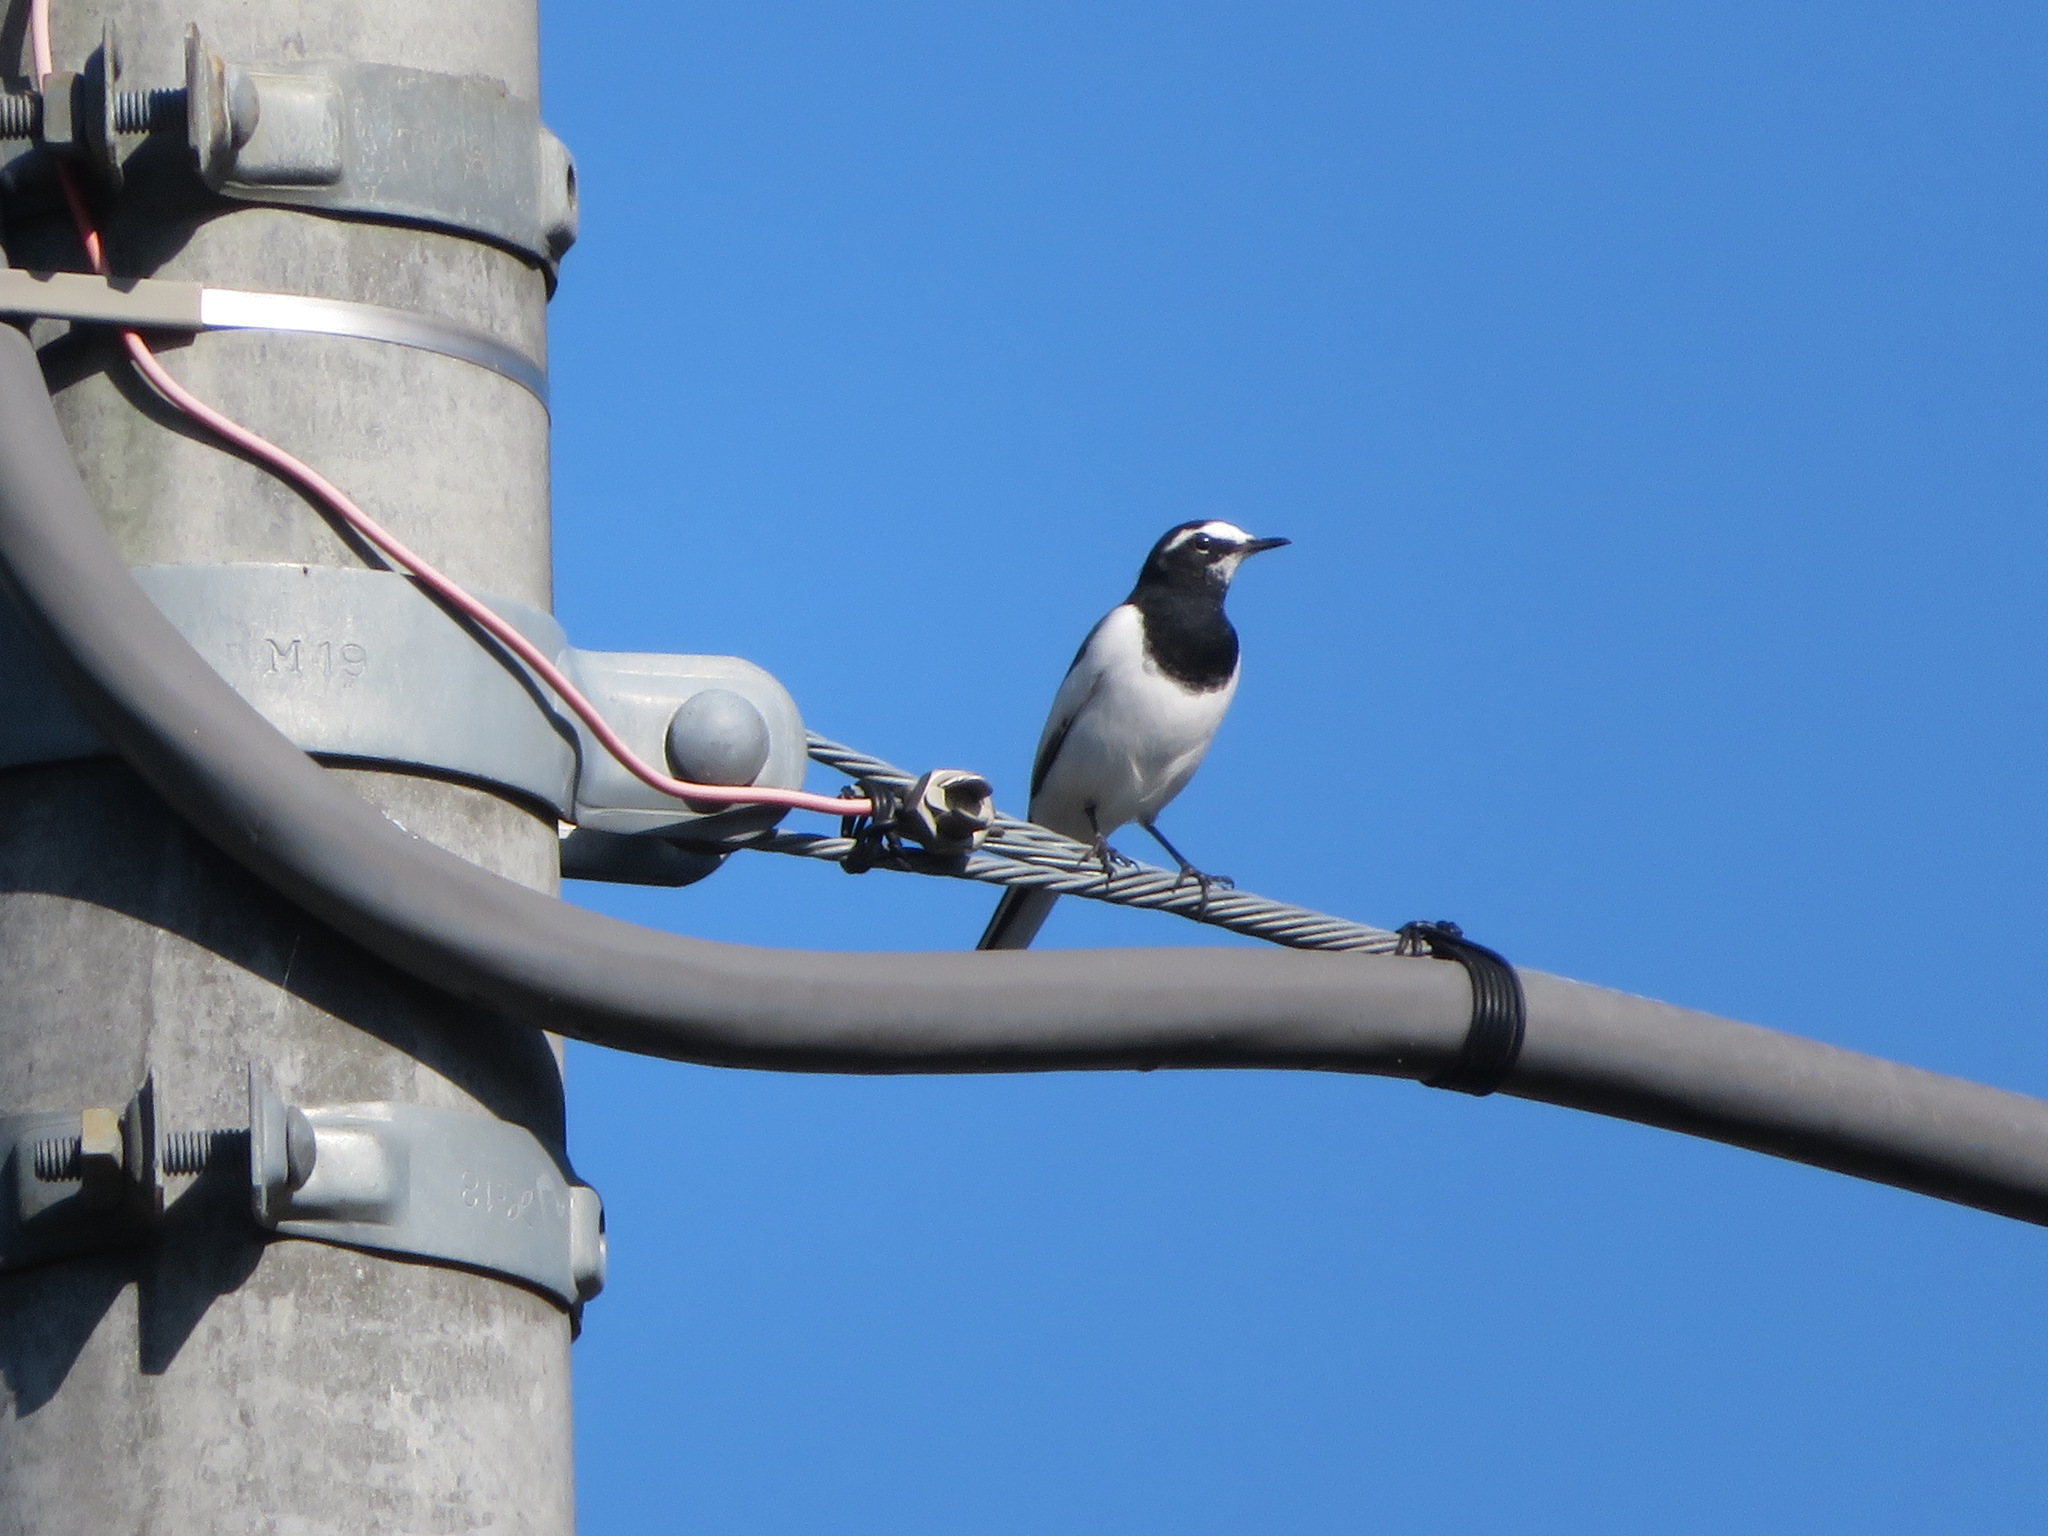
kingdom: Animalia
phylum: Chordata
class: Aves
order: Passeriformes
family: Motacillidae
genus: Motacilla
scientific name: Motacilla grandis
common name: Japanese wagtail
